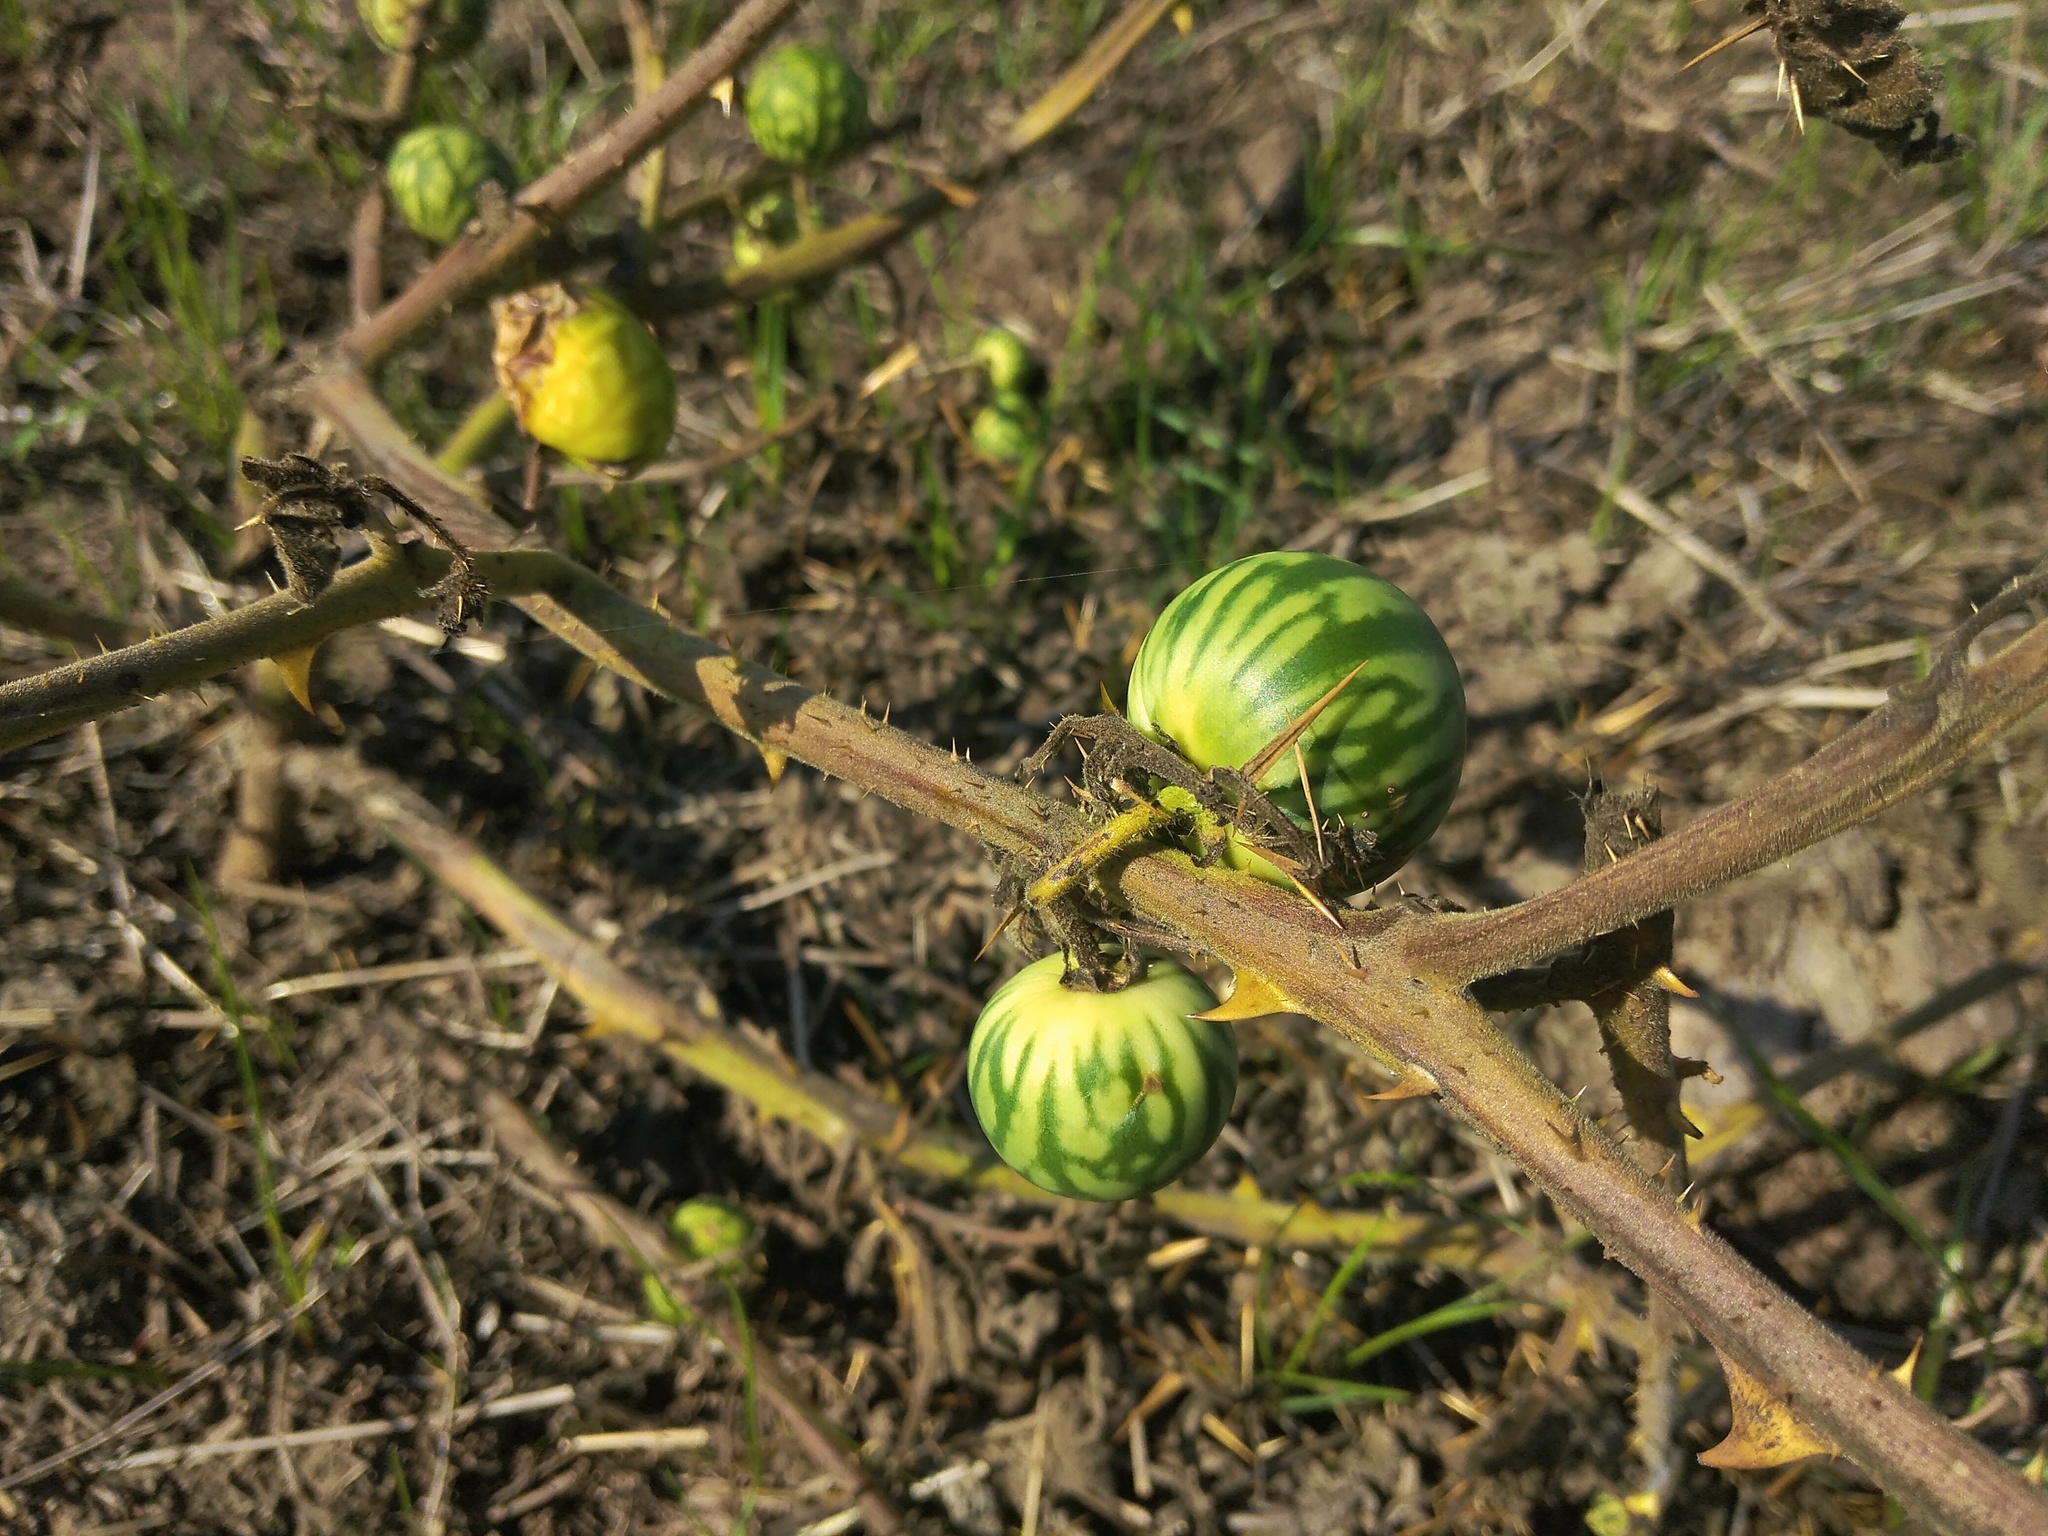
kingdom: Plantae
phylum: Tracheophyta
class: Magnoliopsida
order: Solanales
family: Solanaceae
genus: Solanum
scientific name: Solanum viarum
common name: Tropical soda apple
